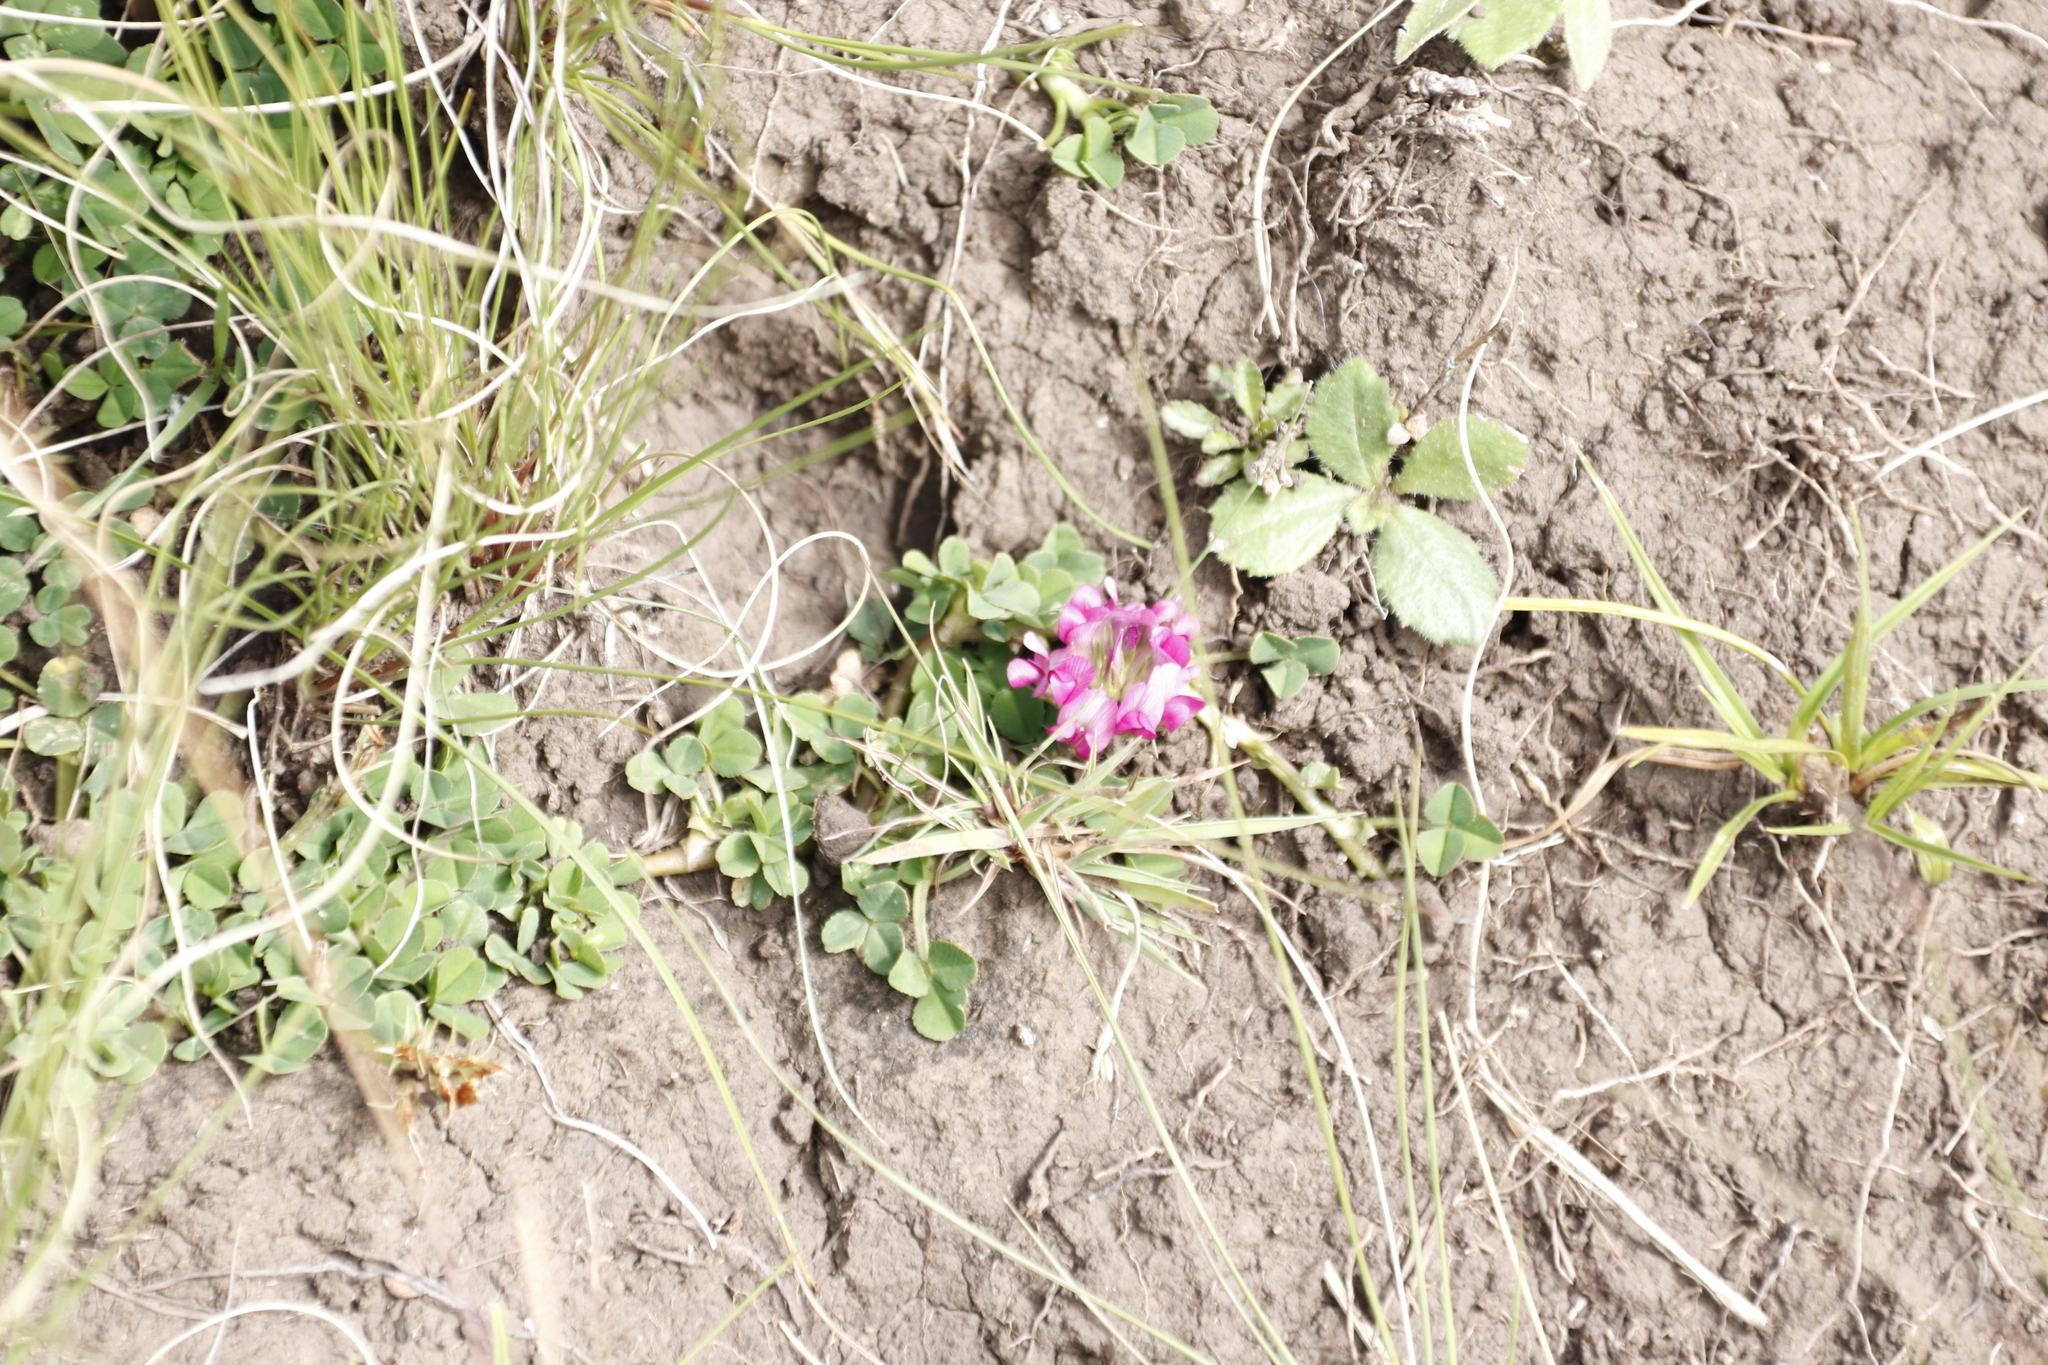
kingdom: Plantae
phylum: Tracheophyta
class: Magnoliopsida
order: Fabales
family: Fabaceae
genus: Trifolium
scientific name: Trifolium burchellianum
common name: Burchell's clover
